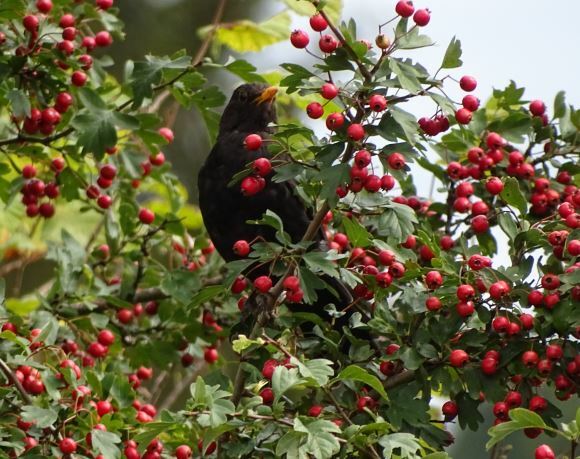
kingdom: Animalia
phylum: Chordata
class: Aves
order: Passeriformes
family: Turdidae
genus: Turdus
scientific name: Turdus merula
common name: Common blackbird
